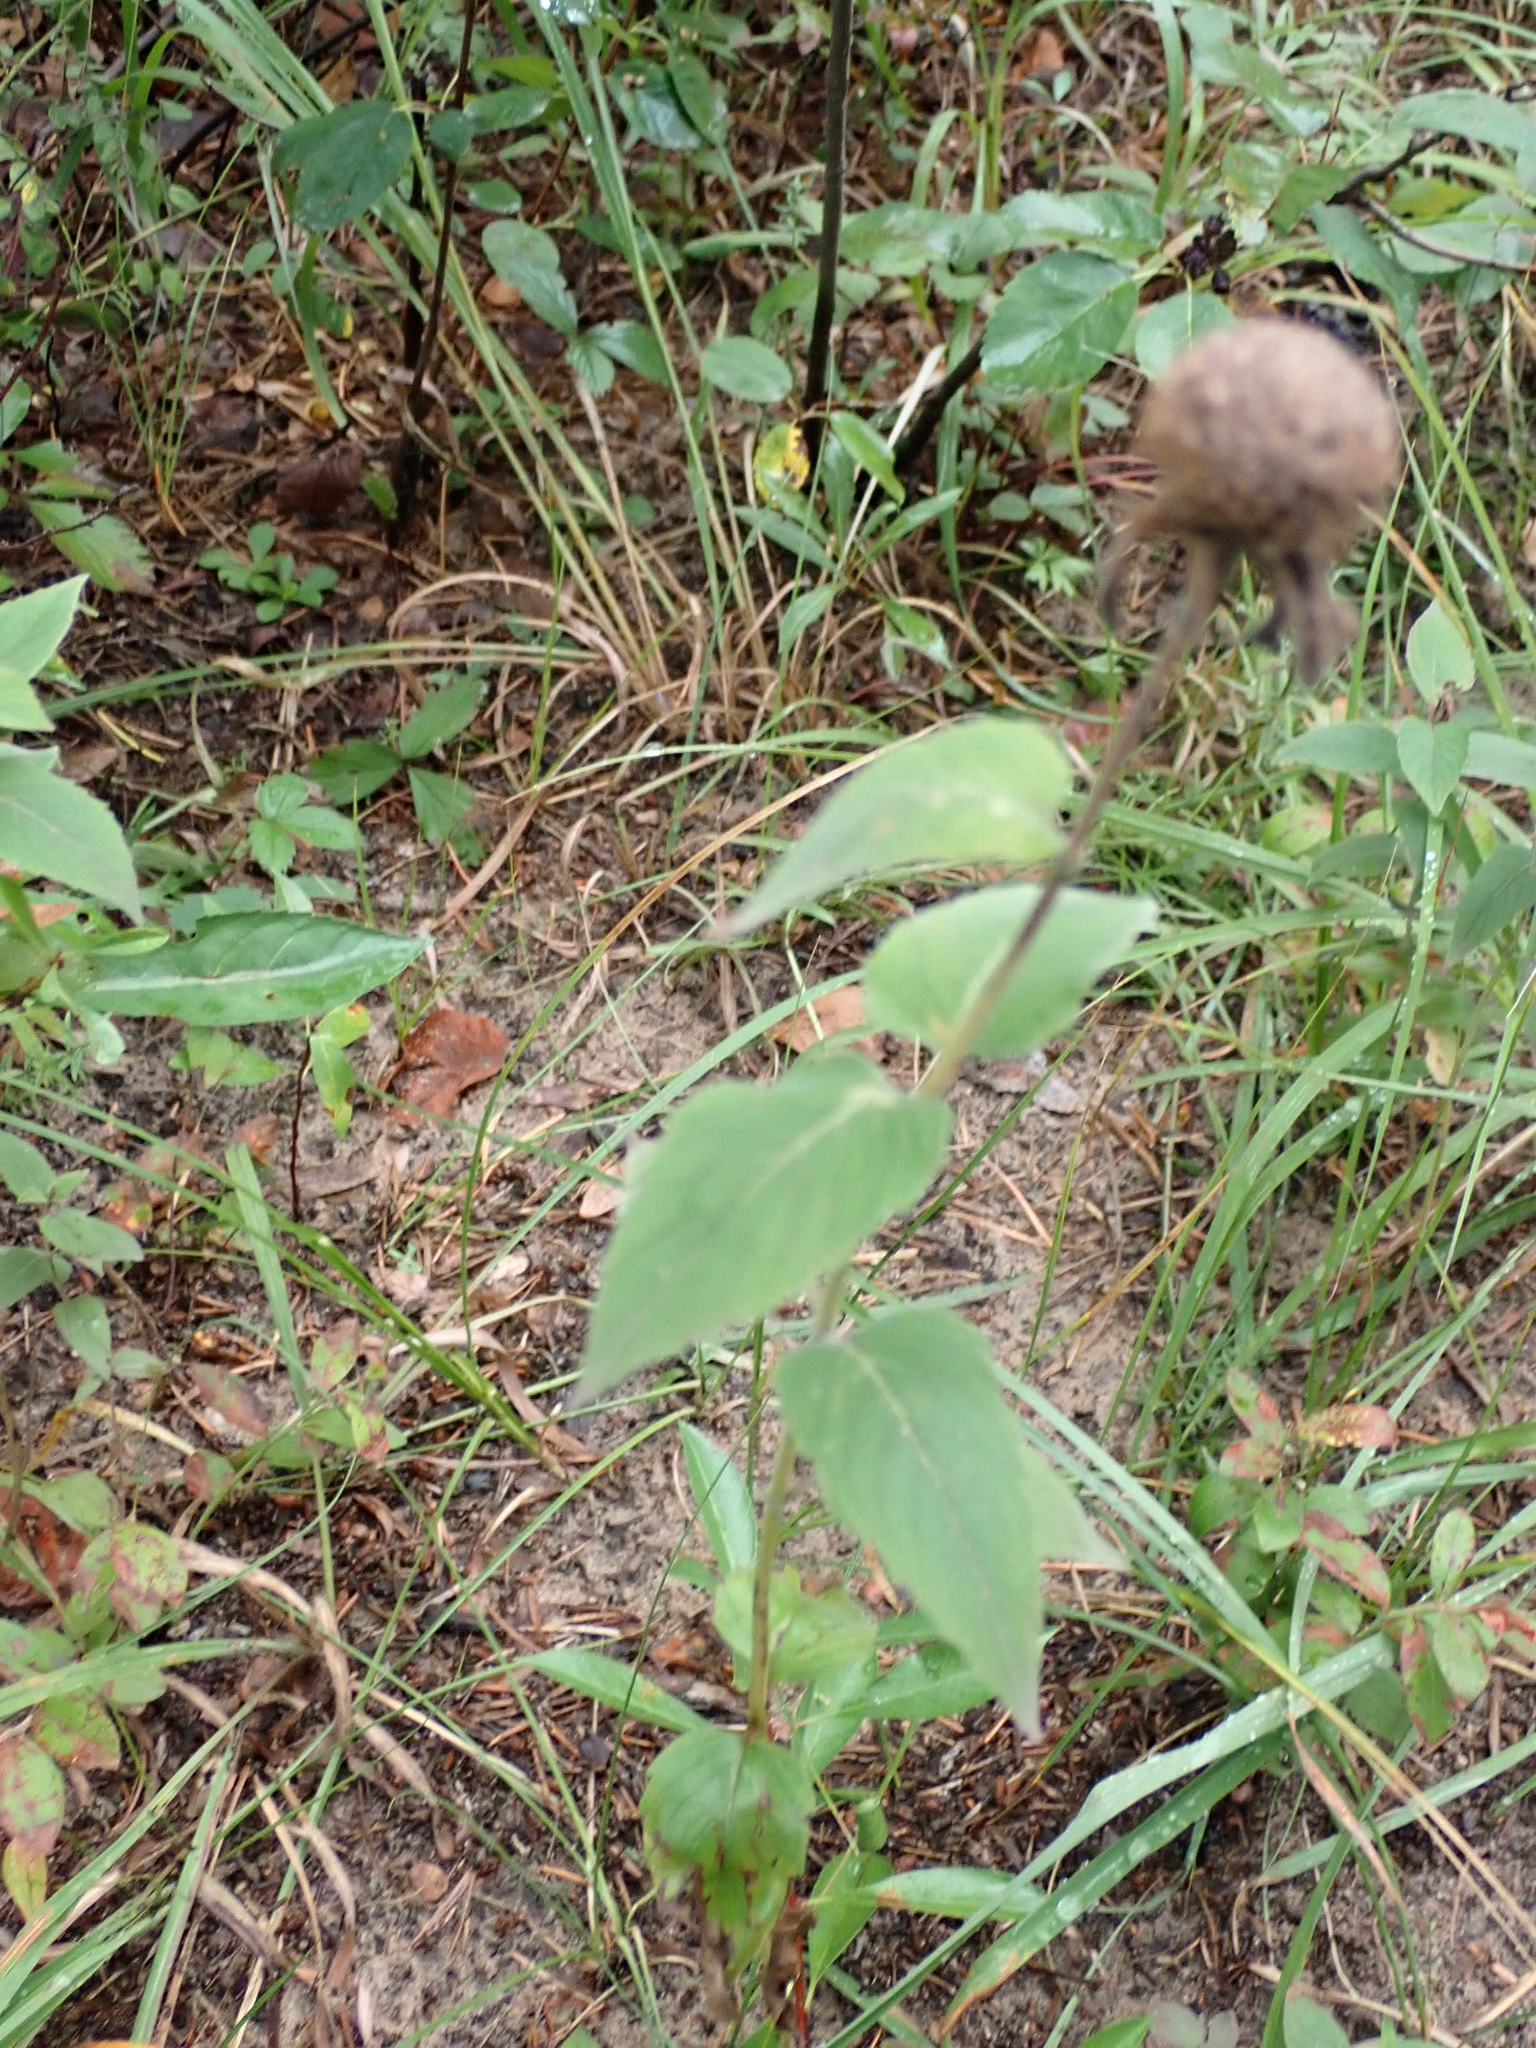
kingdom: Plantae
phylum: Tracheophyta
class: Magnoliopsida
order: Lamiales
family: Lamiaceae
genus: Monarda
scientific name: Monarda fistulosa
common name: Purple beebalm
